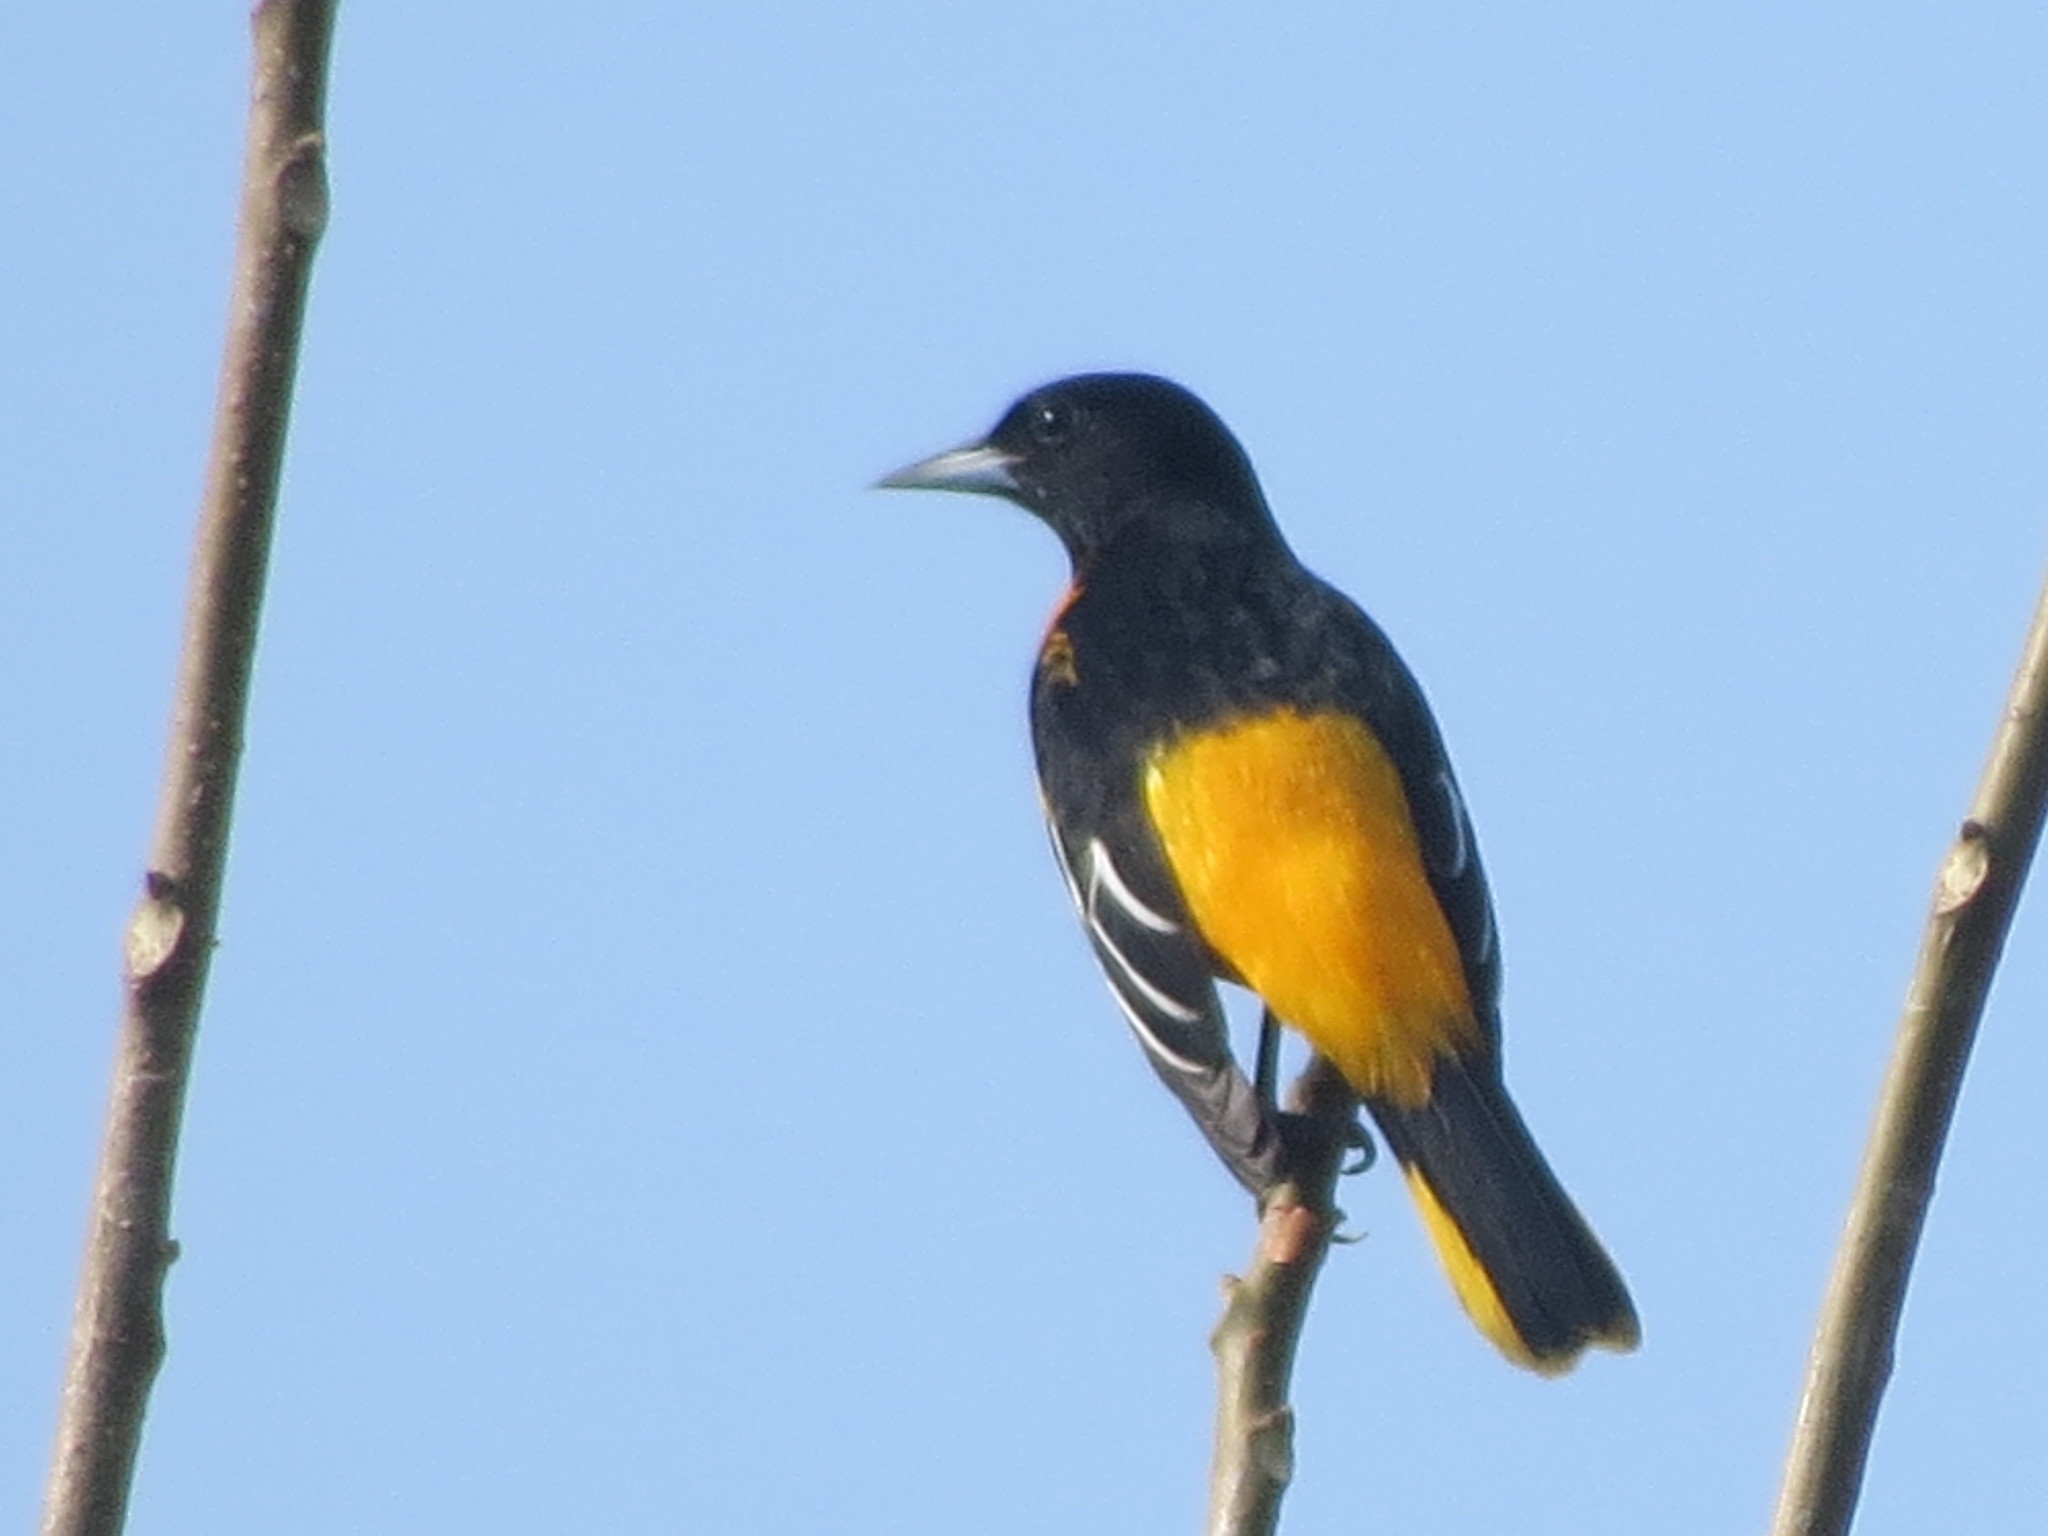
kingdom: Animalia
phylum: Chordata
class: Aves
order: Passeriformes
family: Icteridae
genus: Icterus
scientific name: Icterus galbula
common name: Baltimore oriole
